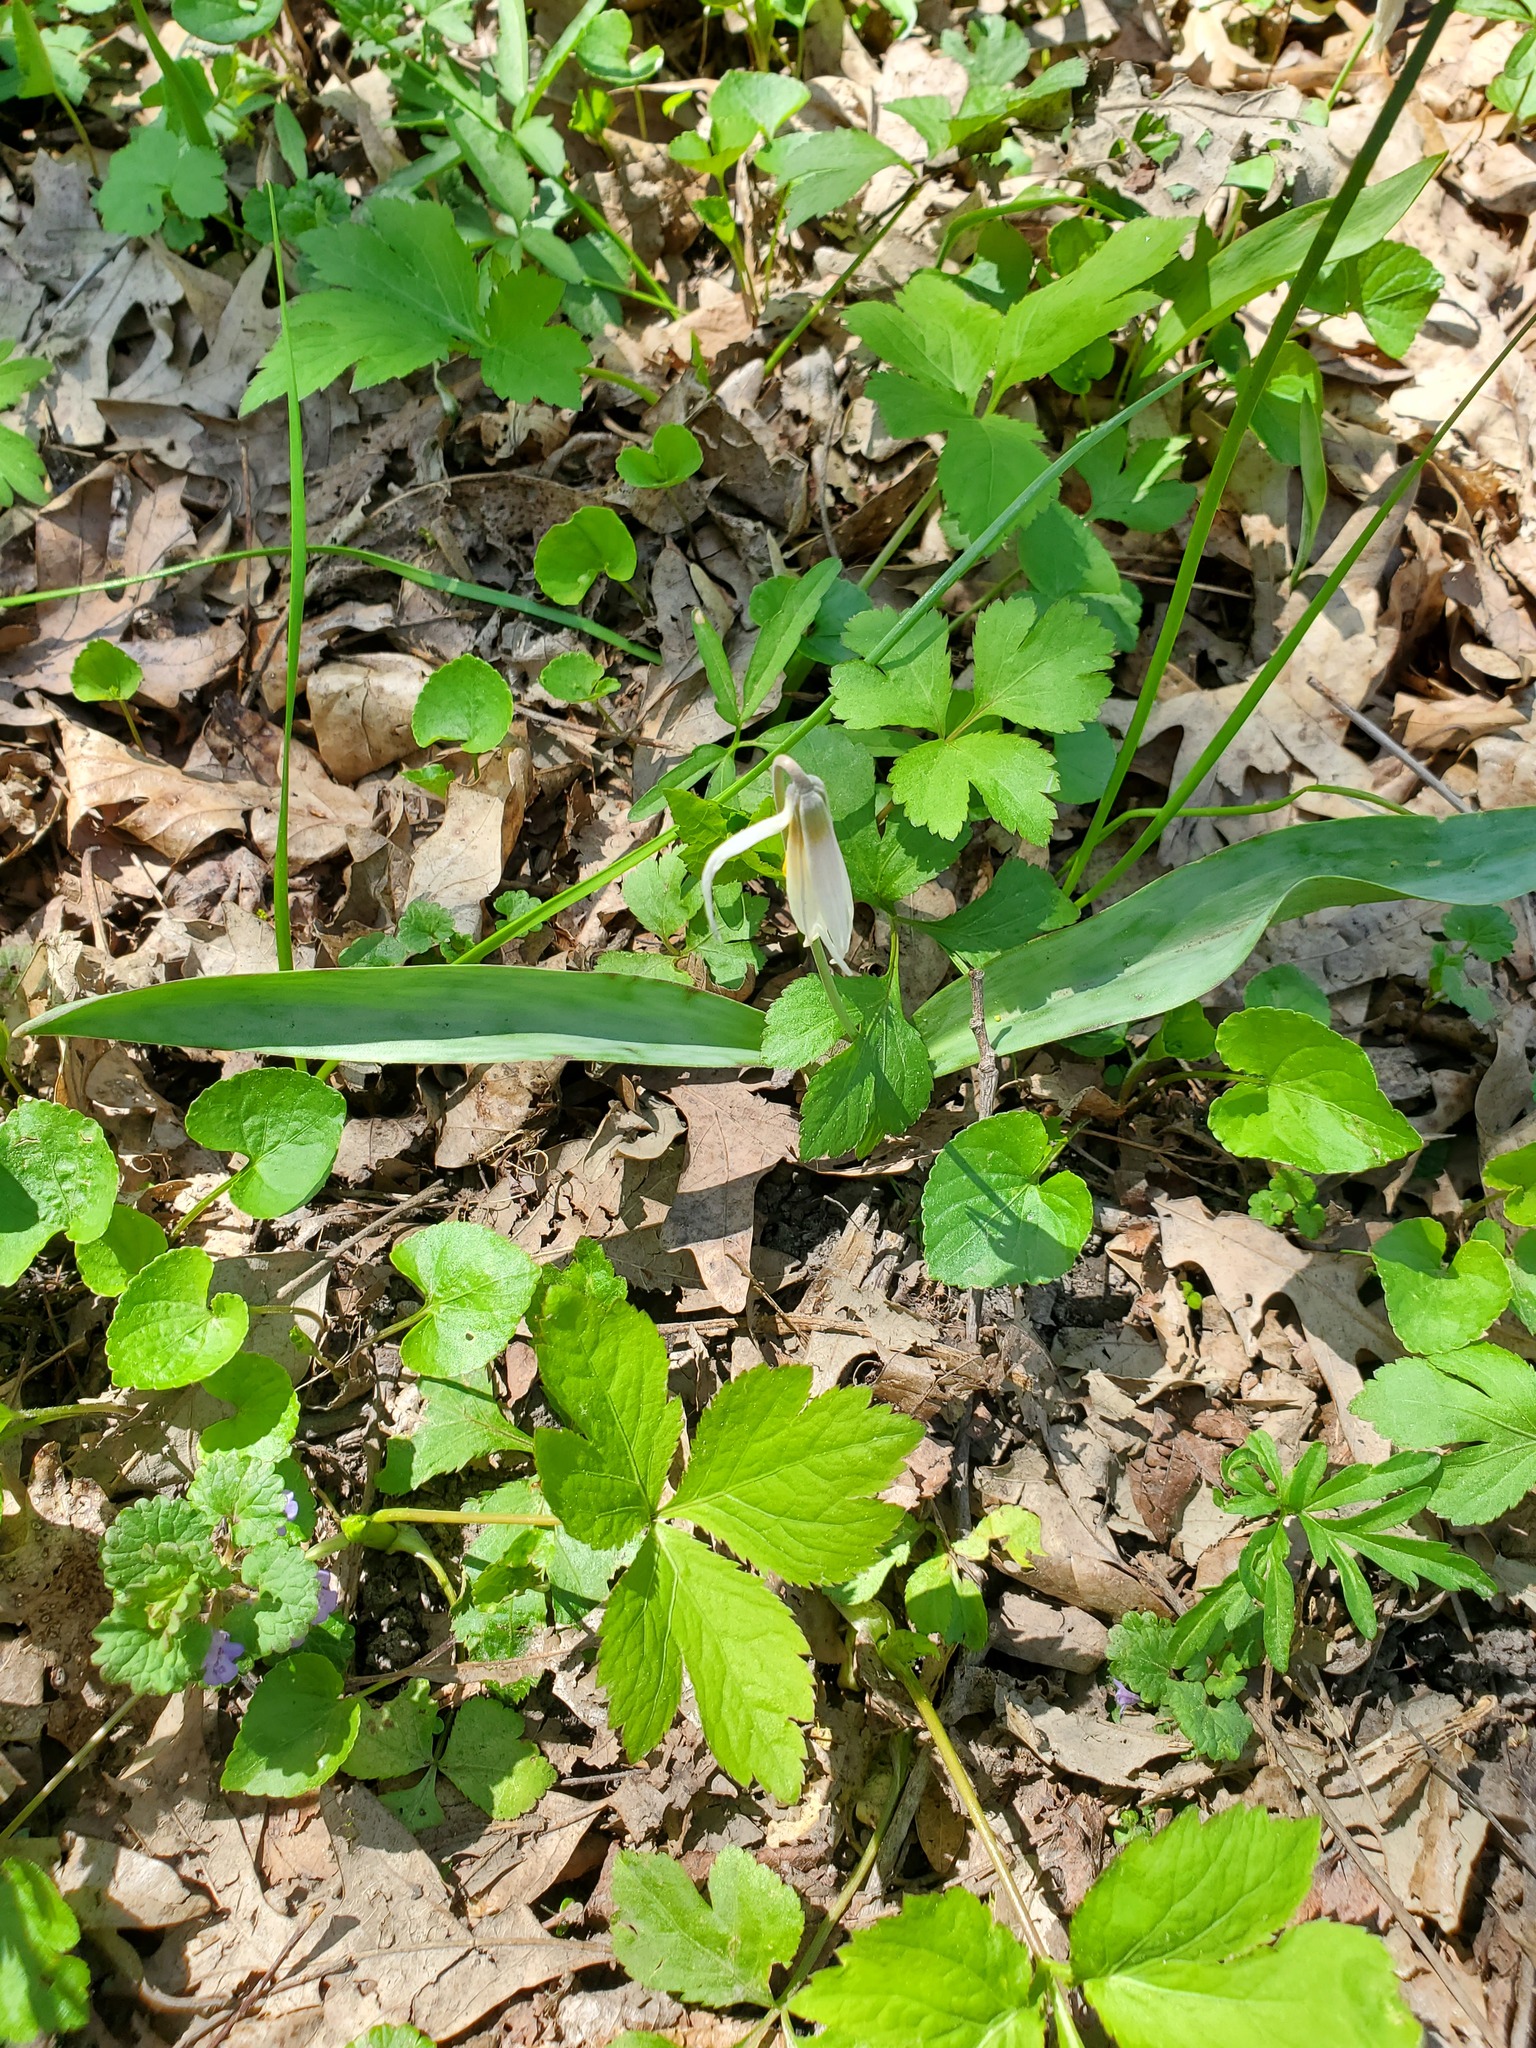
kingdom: Plantae
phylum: Tracheophyta
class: Liliopsida
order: Liliales
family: Liliaceae
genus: Erythronium
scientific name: Erythronium albidum
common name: White trout-lily
